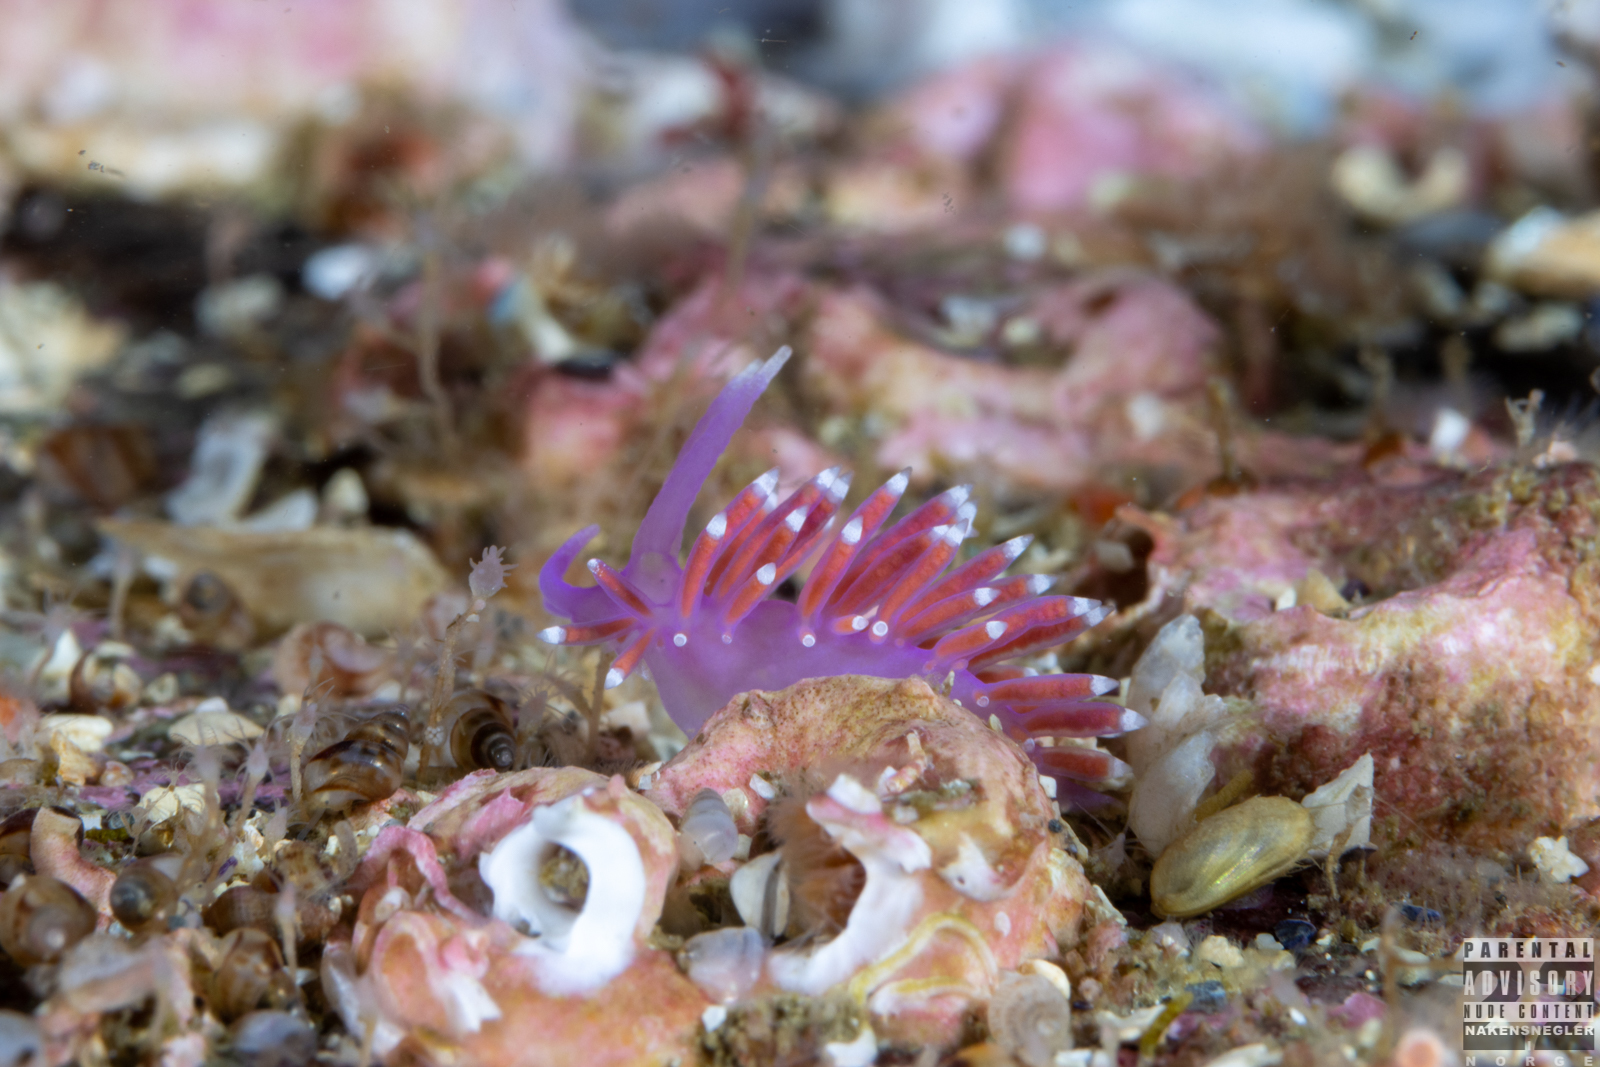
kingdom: Animalia
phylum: Mollusca
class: Gastropoda
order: Nudibranchia
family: Flabellinidae
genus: Edmundsella
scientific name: Edmundsella pedata
